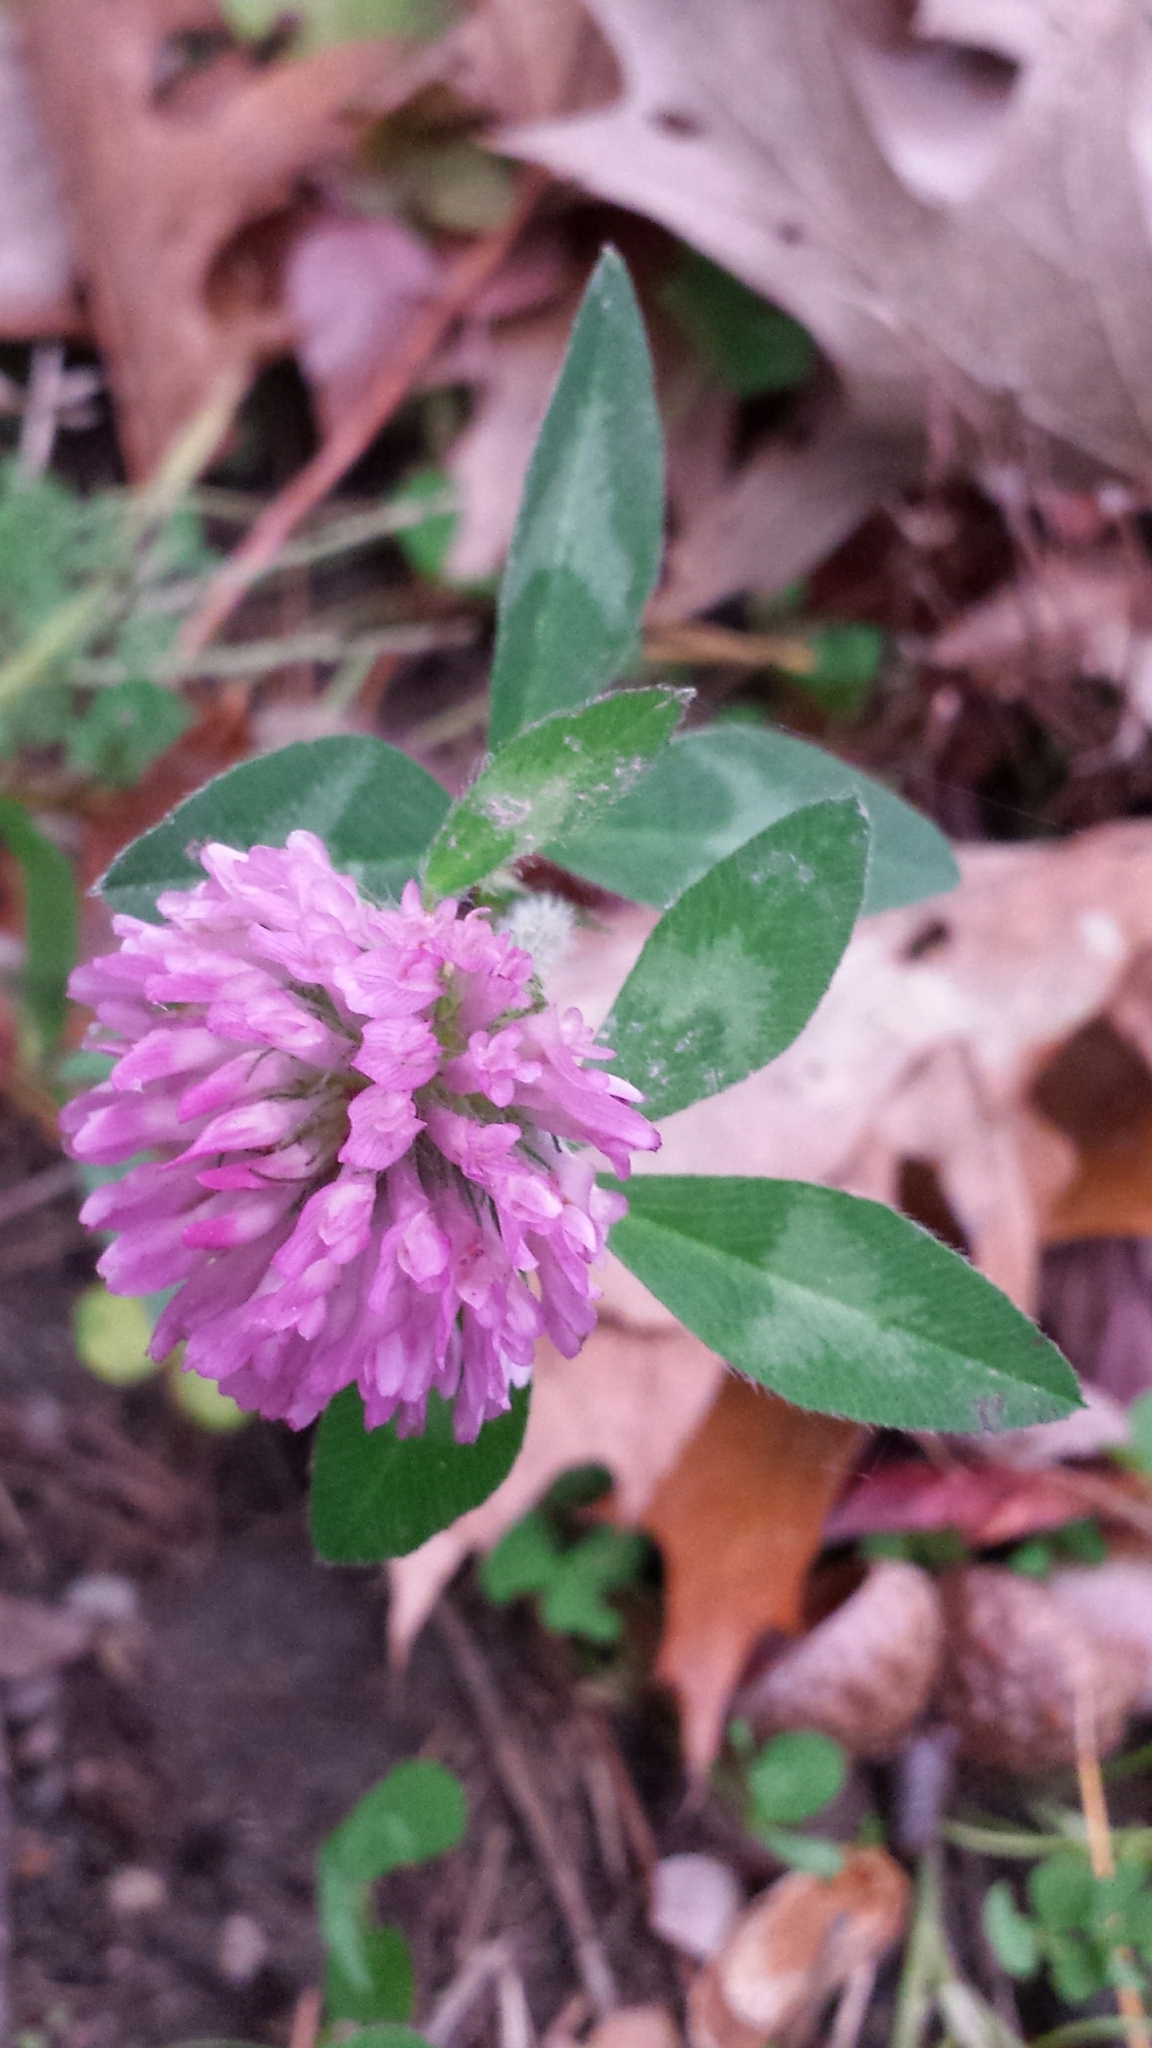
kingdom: Plantae
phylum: Tracheophyta
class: Magnoliopsida
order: Fabales
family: Fabaceae
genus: Trifolium
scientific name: Trifolium pratense
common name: Red clover
